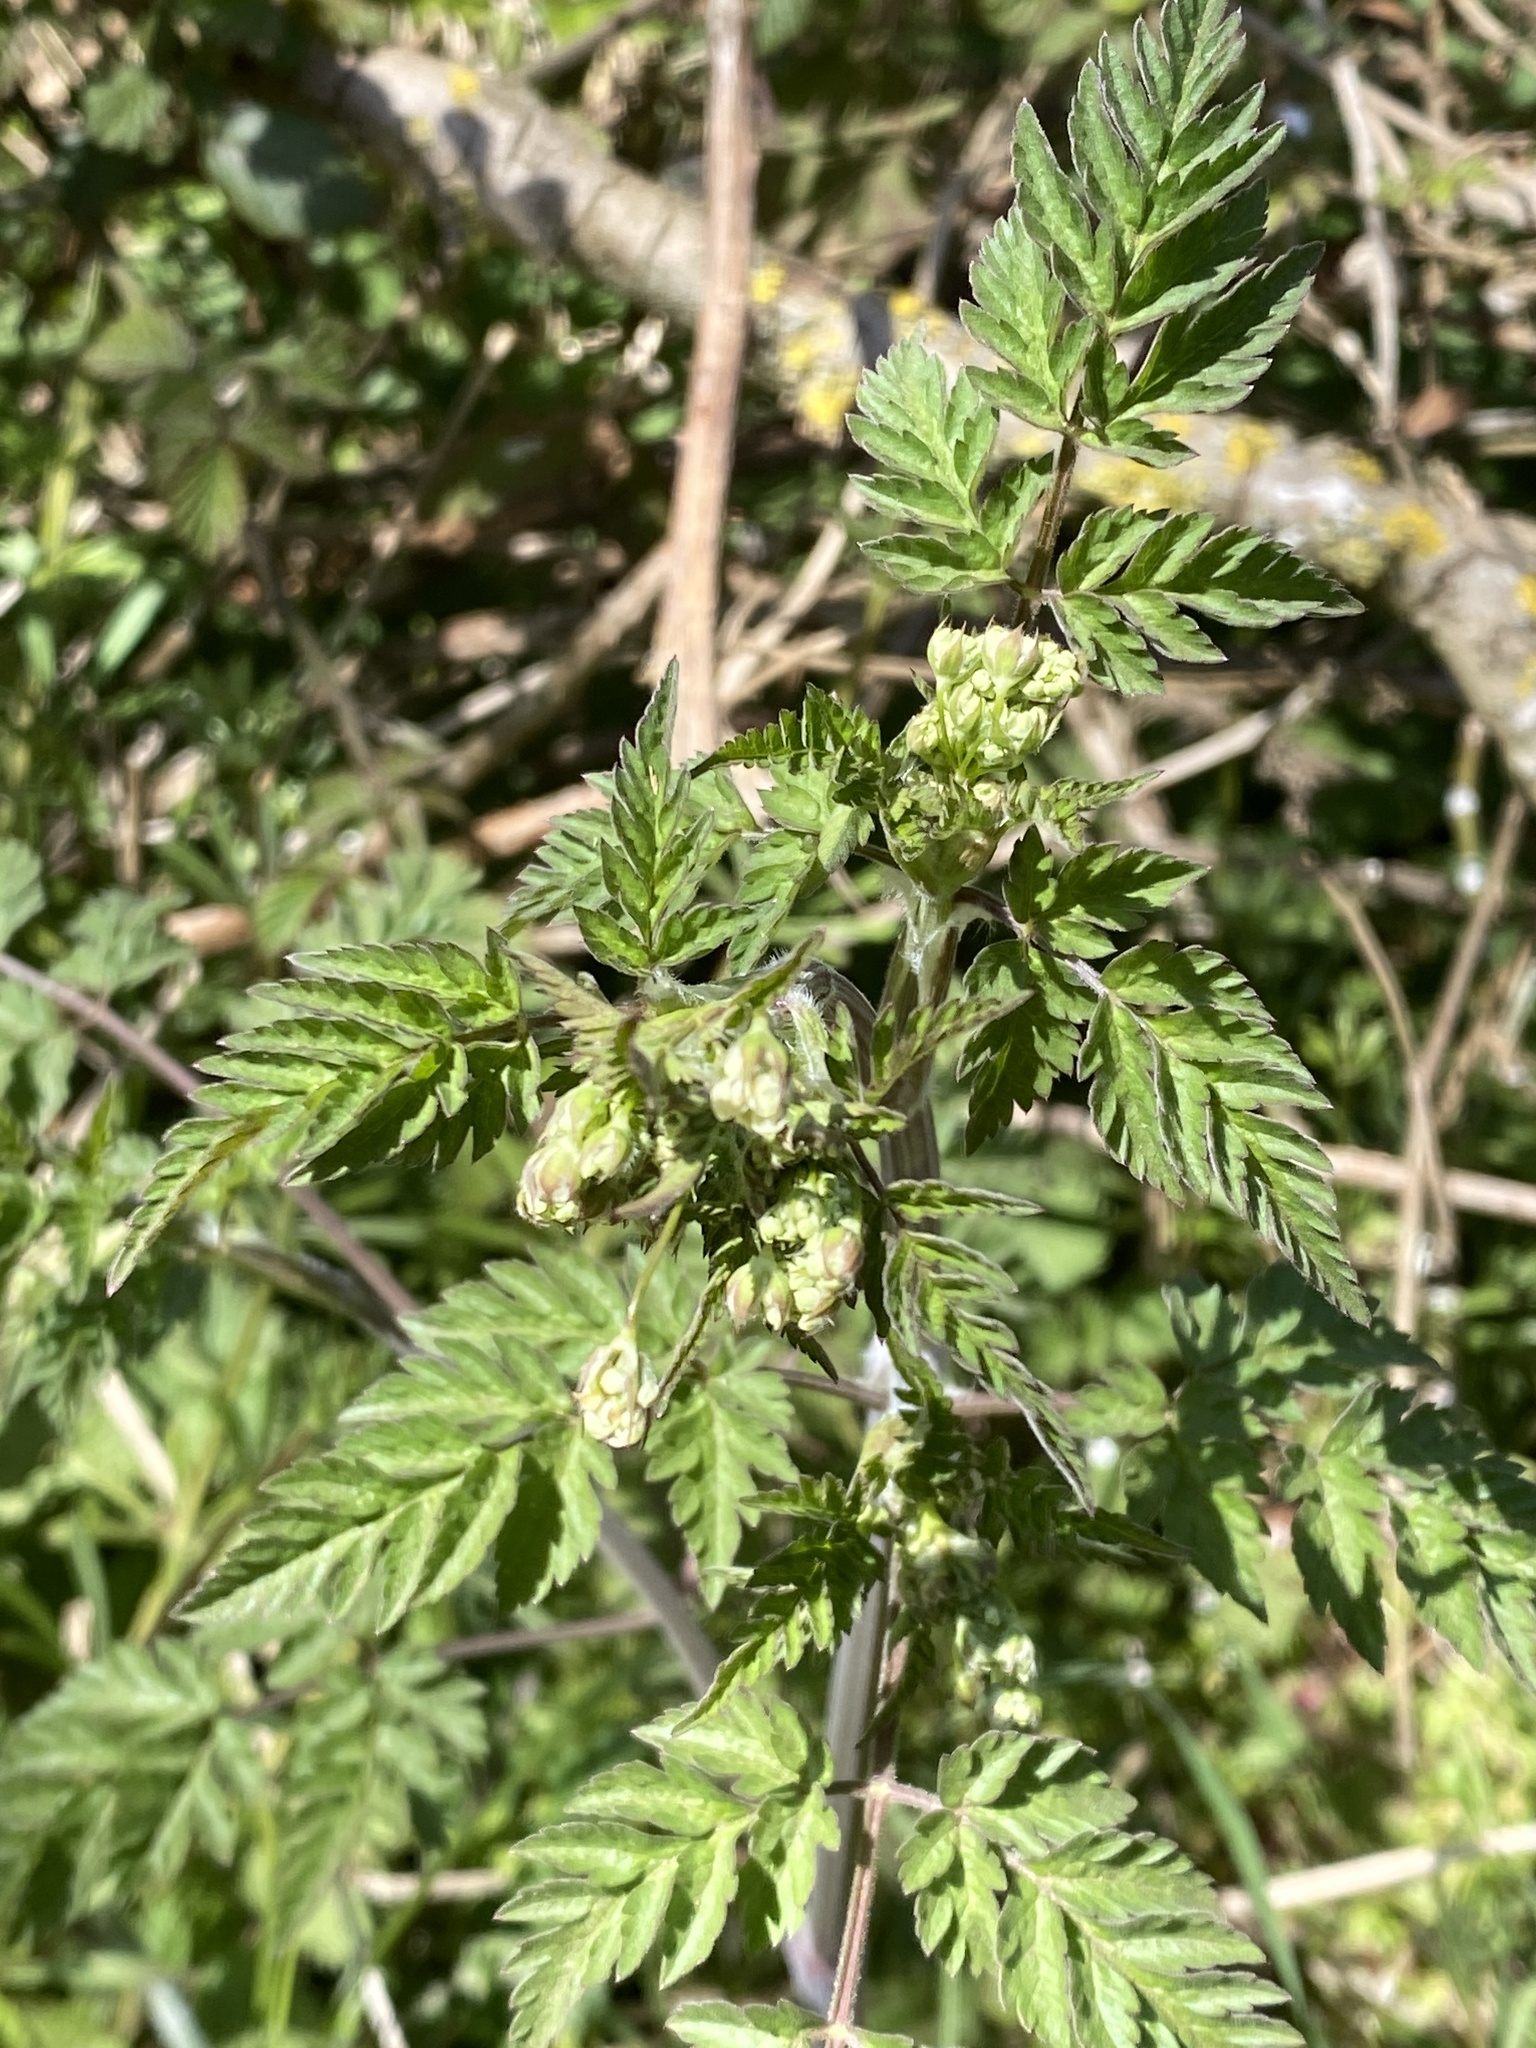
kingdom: Plantae
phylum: Tracheophyta
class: Magnoliopsida
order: Apiales
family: Apiaceae
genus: Anthriscus
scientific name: Anthriscus sylvestris
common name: Cow parsley
